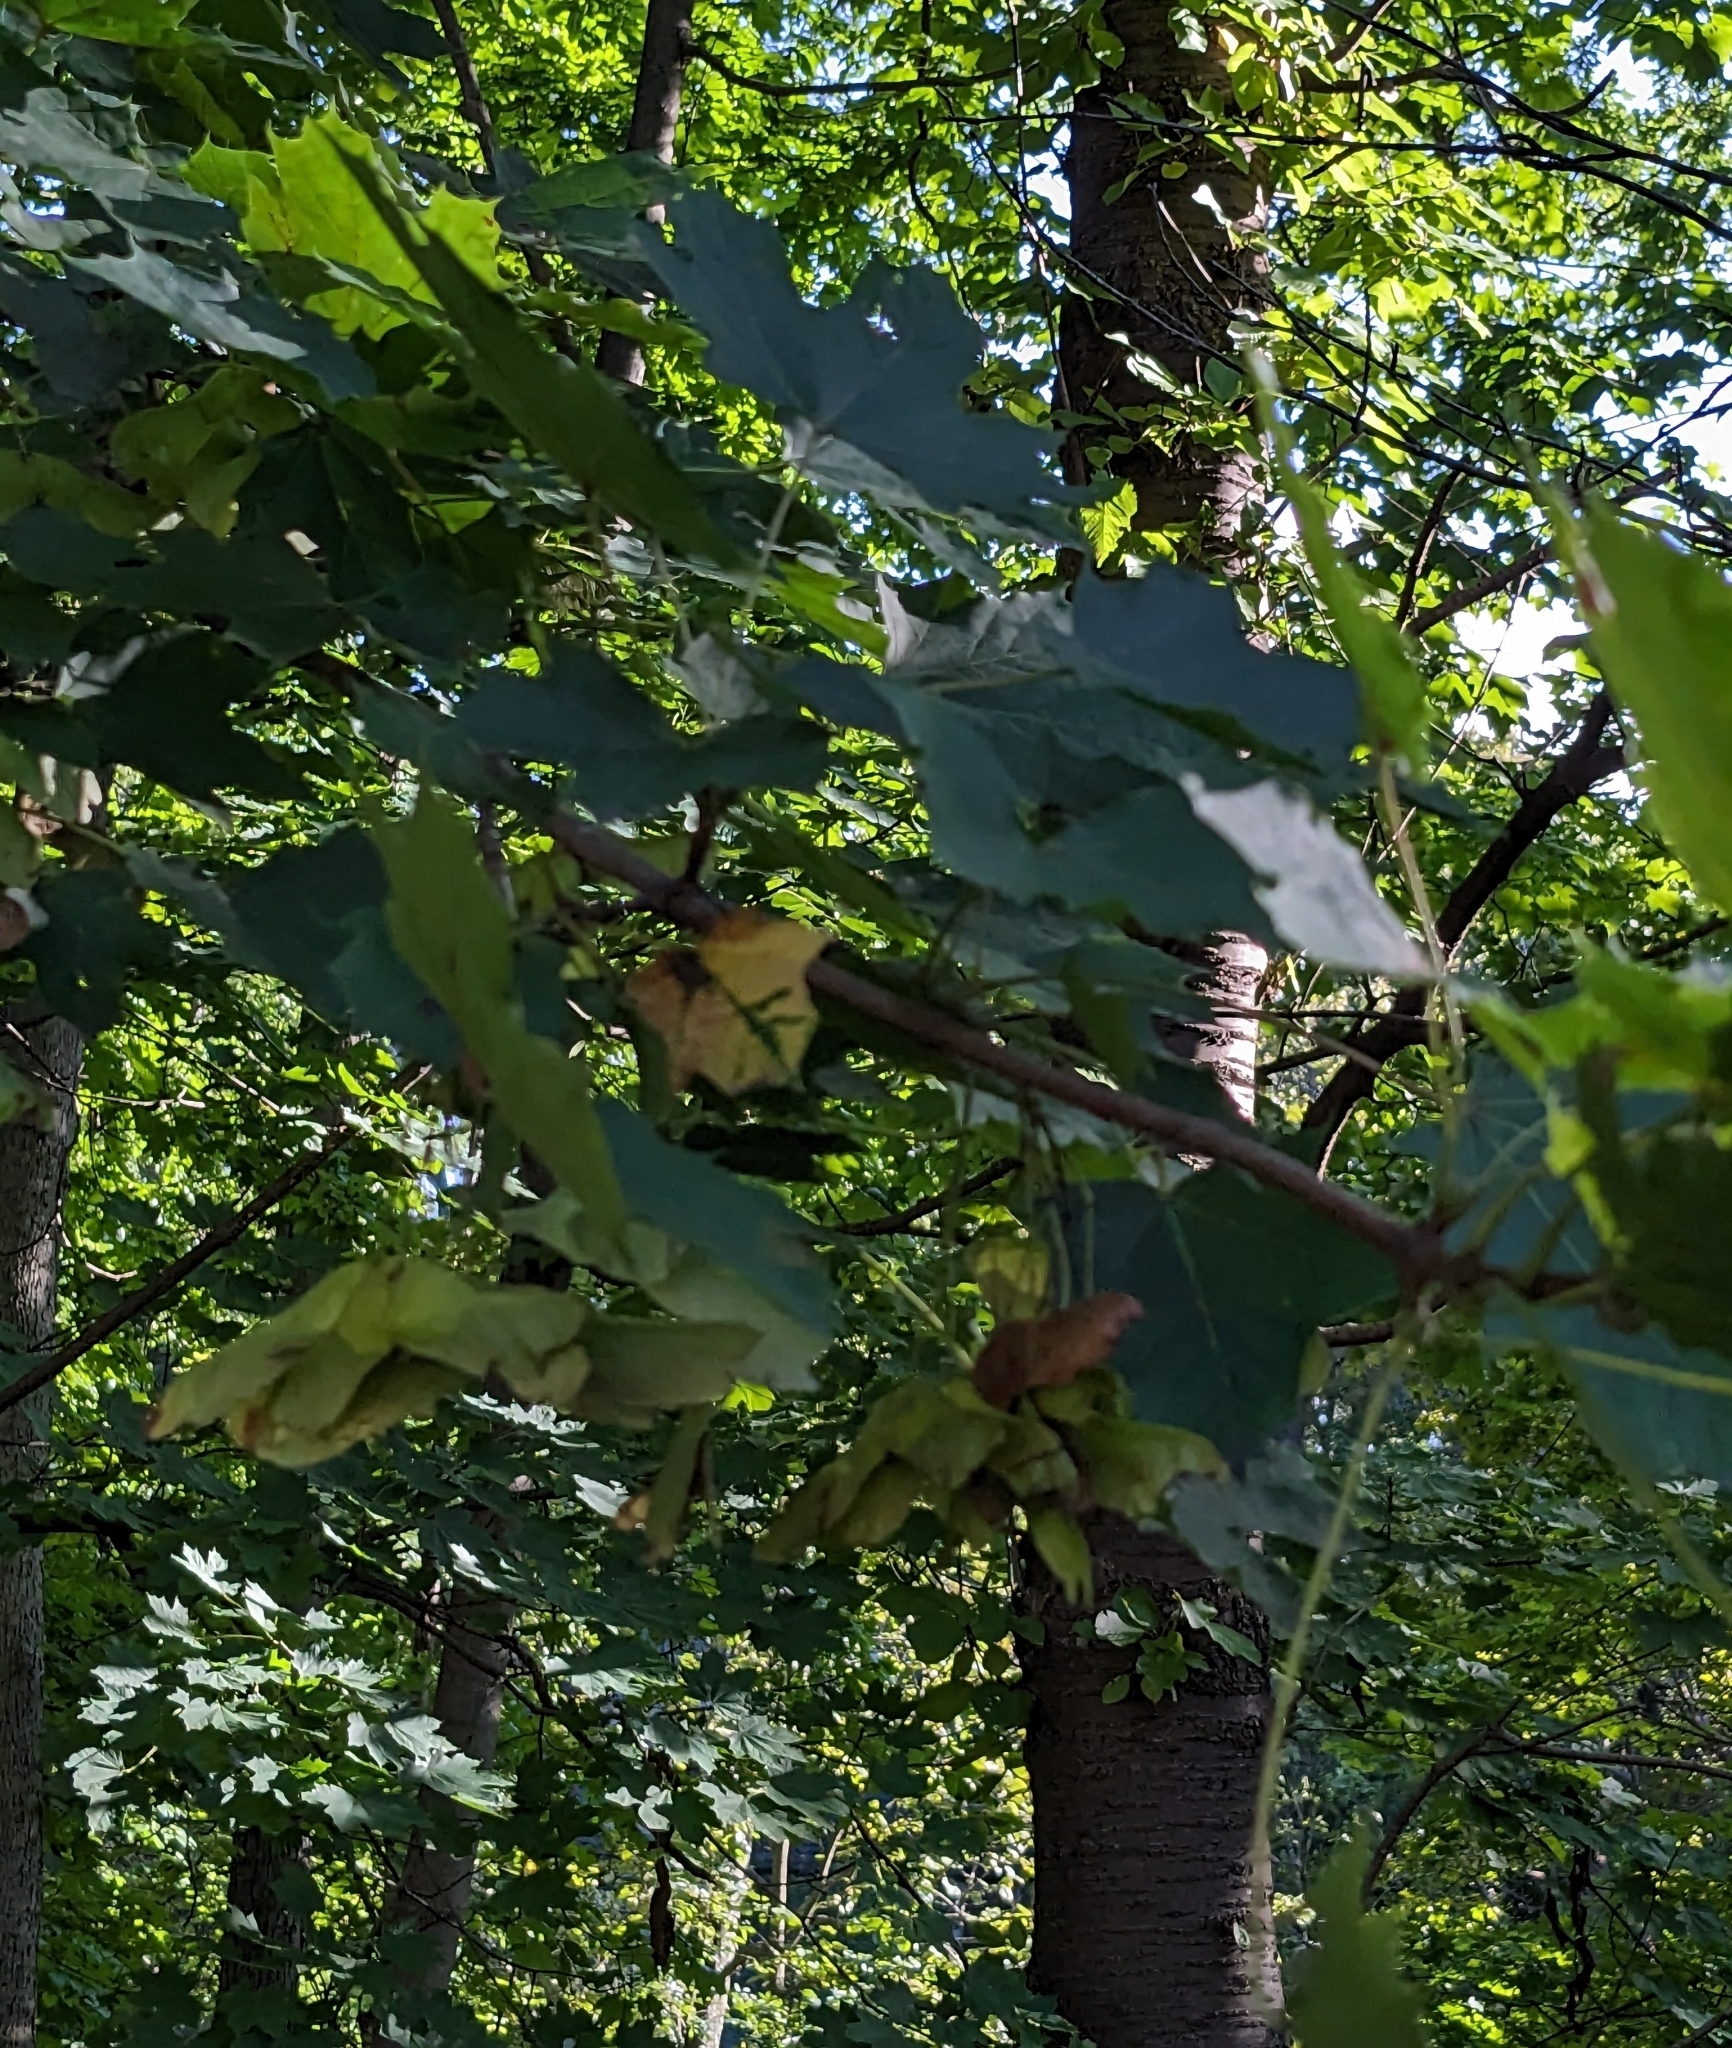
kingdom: Plantae
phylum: Tracheophyta
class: Magnoliopsida
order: Sapindales
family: Sapindaceae
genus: Acer
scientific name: Acer platanoides
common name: Norway maple
